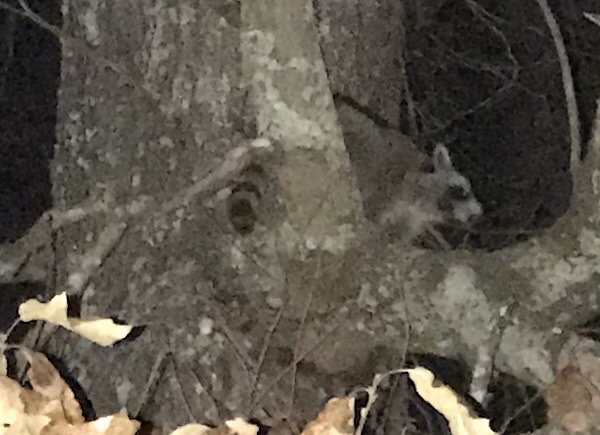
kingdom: Animalia
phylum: Chordata
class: Mammalia
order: Carnivora
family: Procyonidae
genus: Procyon
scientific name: Procyon lotor
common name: Raccoon
